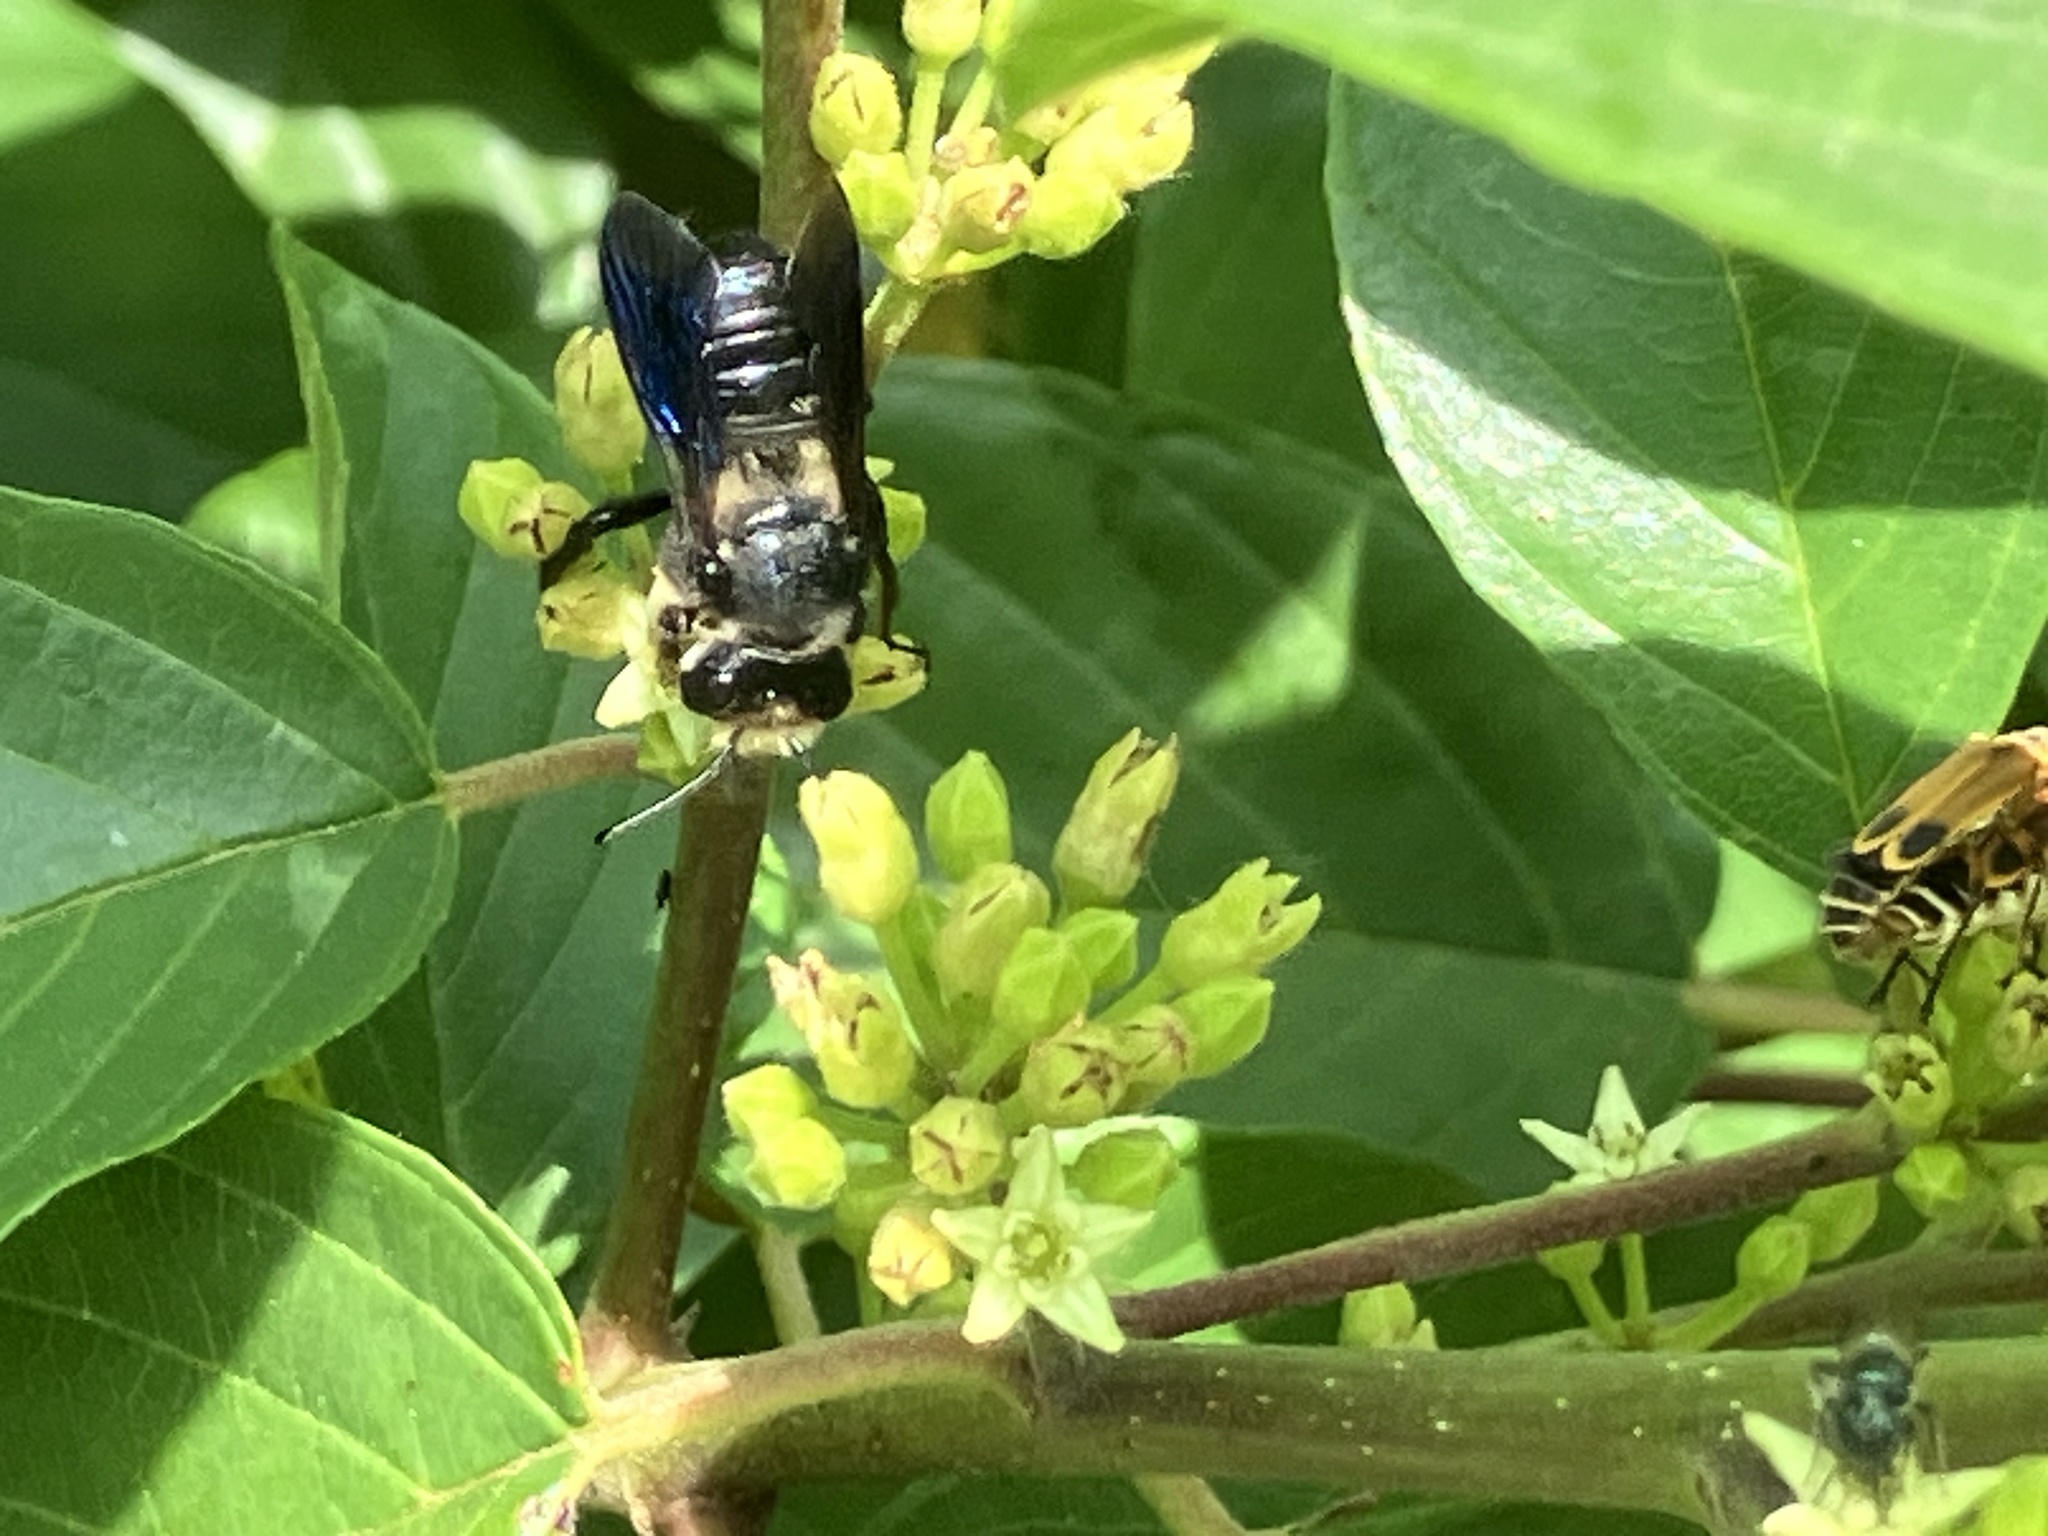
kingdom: Animalia
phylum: Arthropoda
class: Insecta
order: Hymenoptera
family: Megachilidae
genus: Megachile
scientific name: Megachile xylocopoides
